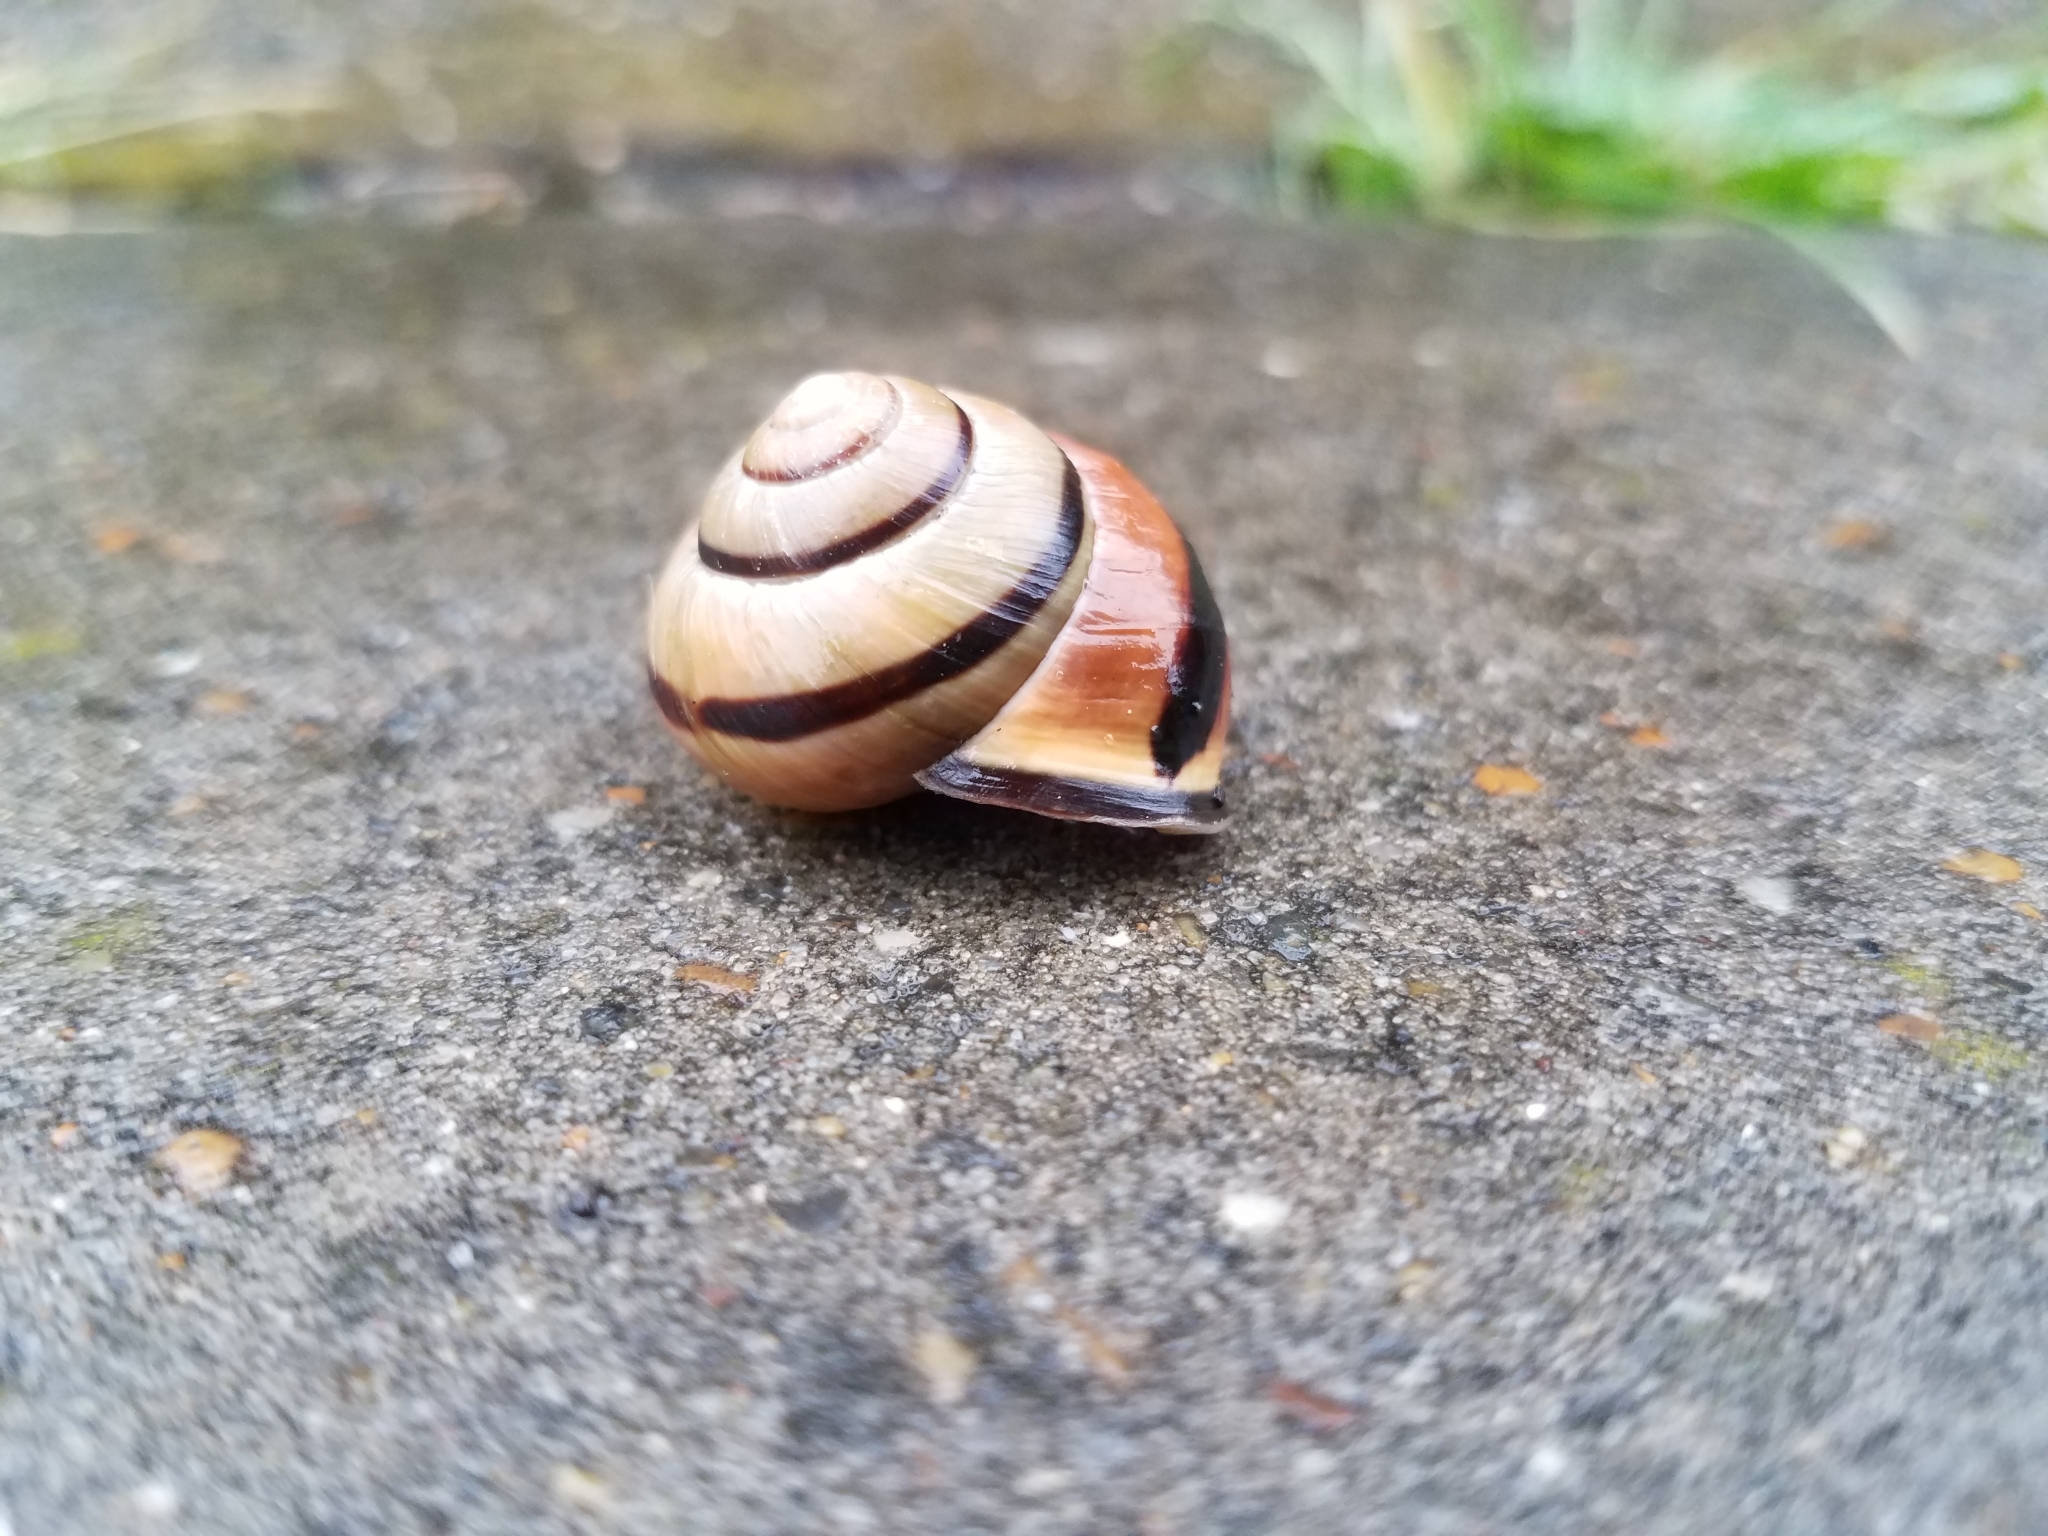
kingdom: Animalia
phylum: Mollusca
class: Gastropoda
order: Stylommatophora
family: Helicidae
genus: Cepaea
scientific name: Cepaea nemoralis
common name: Grovesnail
